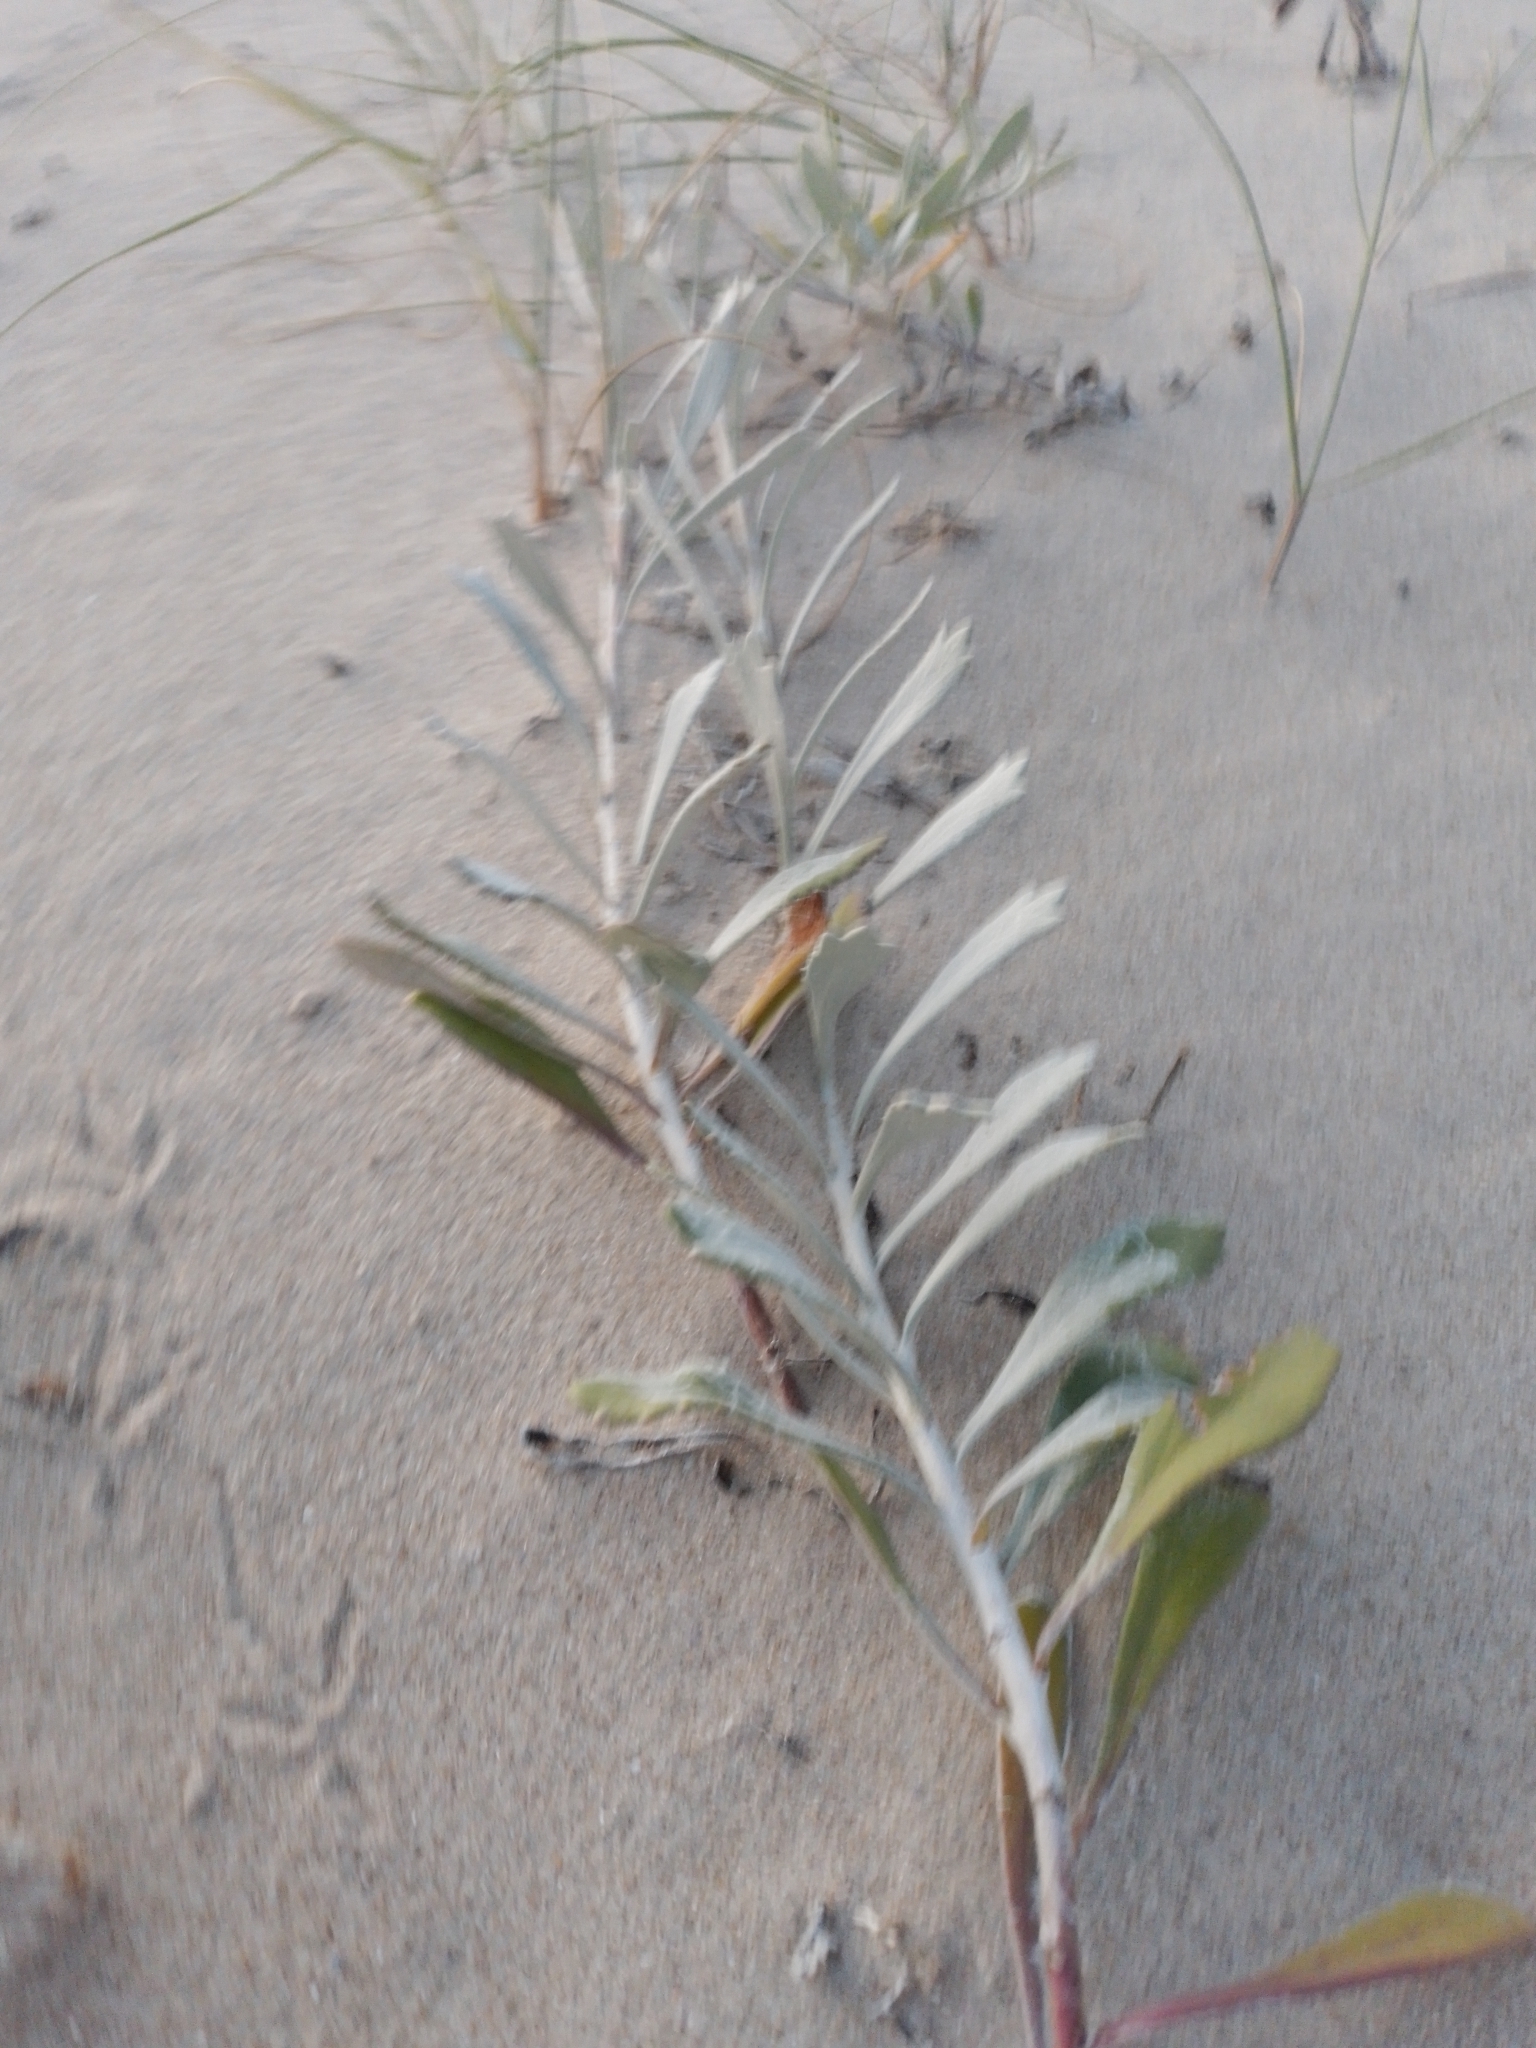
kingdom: Plantae
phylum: Tracheophyta
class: Magnoliopsida
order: Asterales
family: Asteraceae
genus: Senecio
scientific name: Senecio crassiflorus
